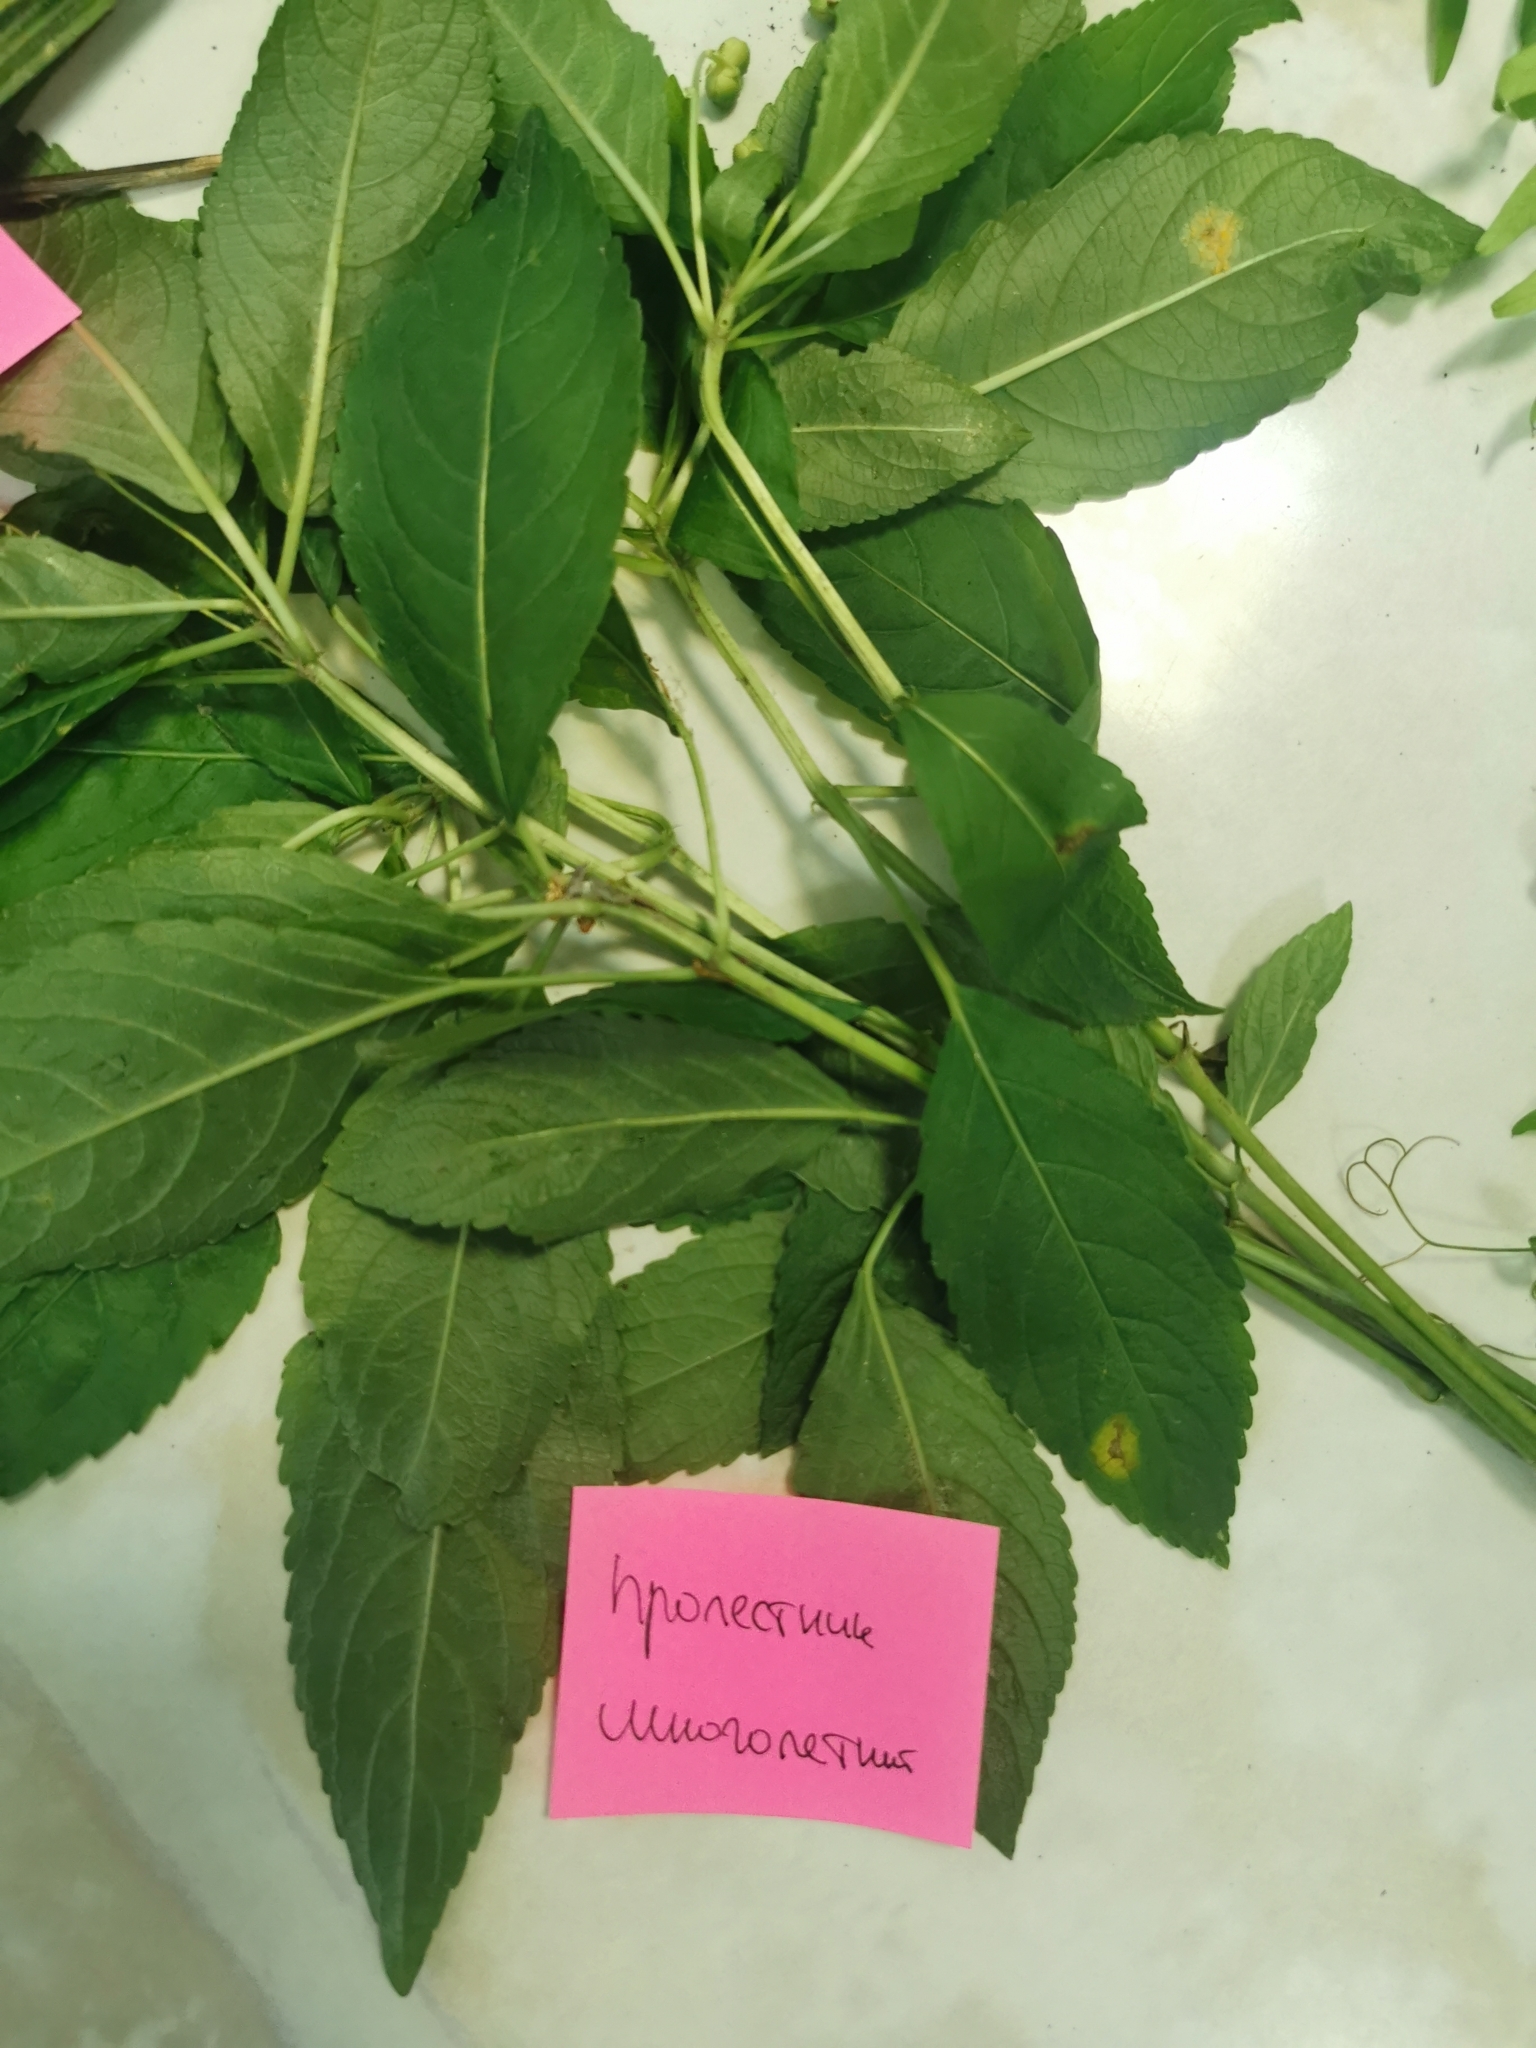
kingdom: Plantae
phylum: Tracheophyta
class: Magnoliopsida
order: Malpighiales
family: Euphorbiaceae
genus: Mercurialis
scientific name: Mercurialis perennis
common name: Dog mercury
